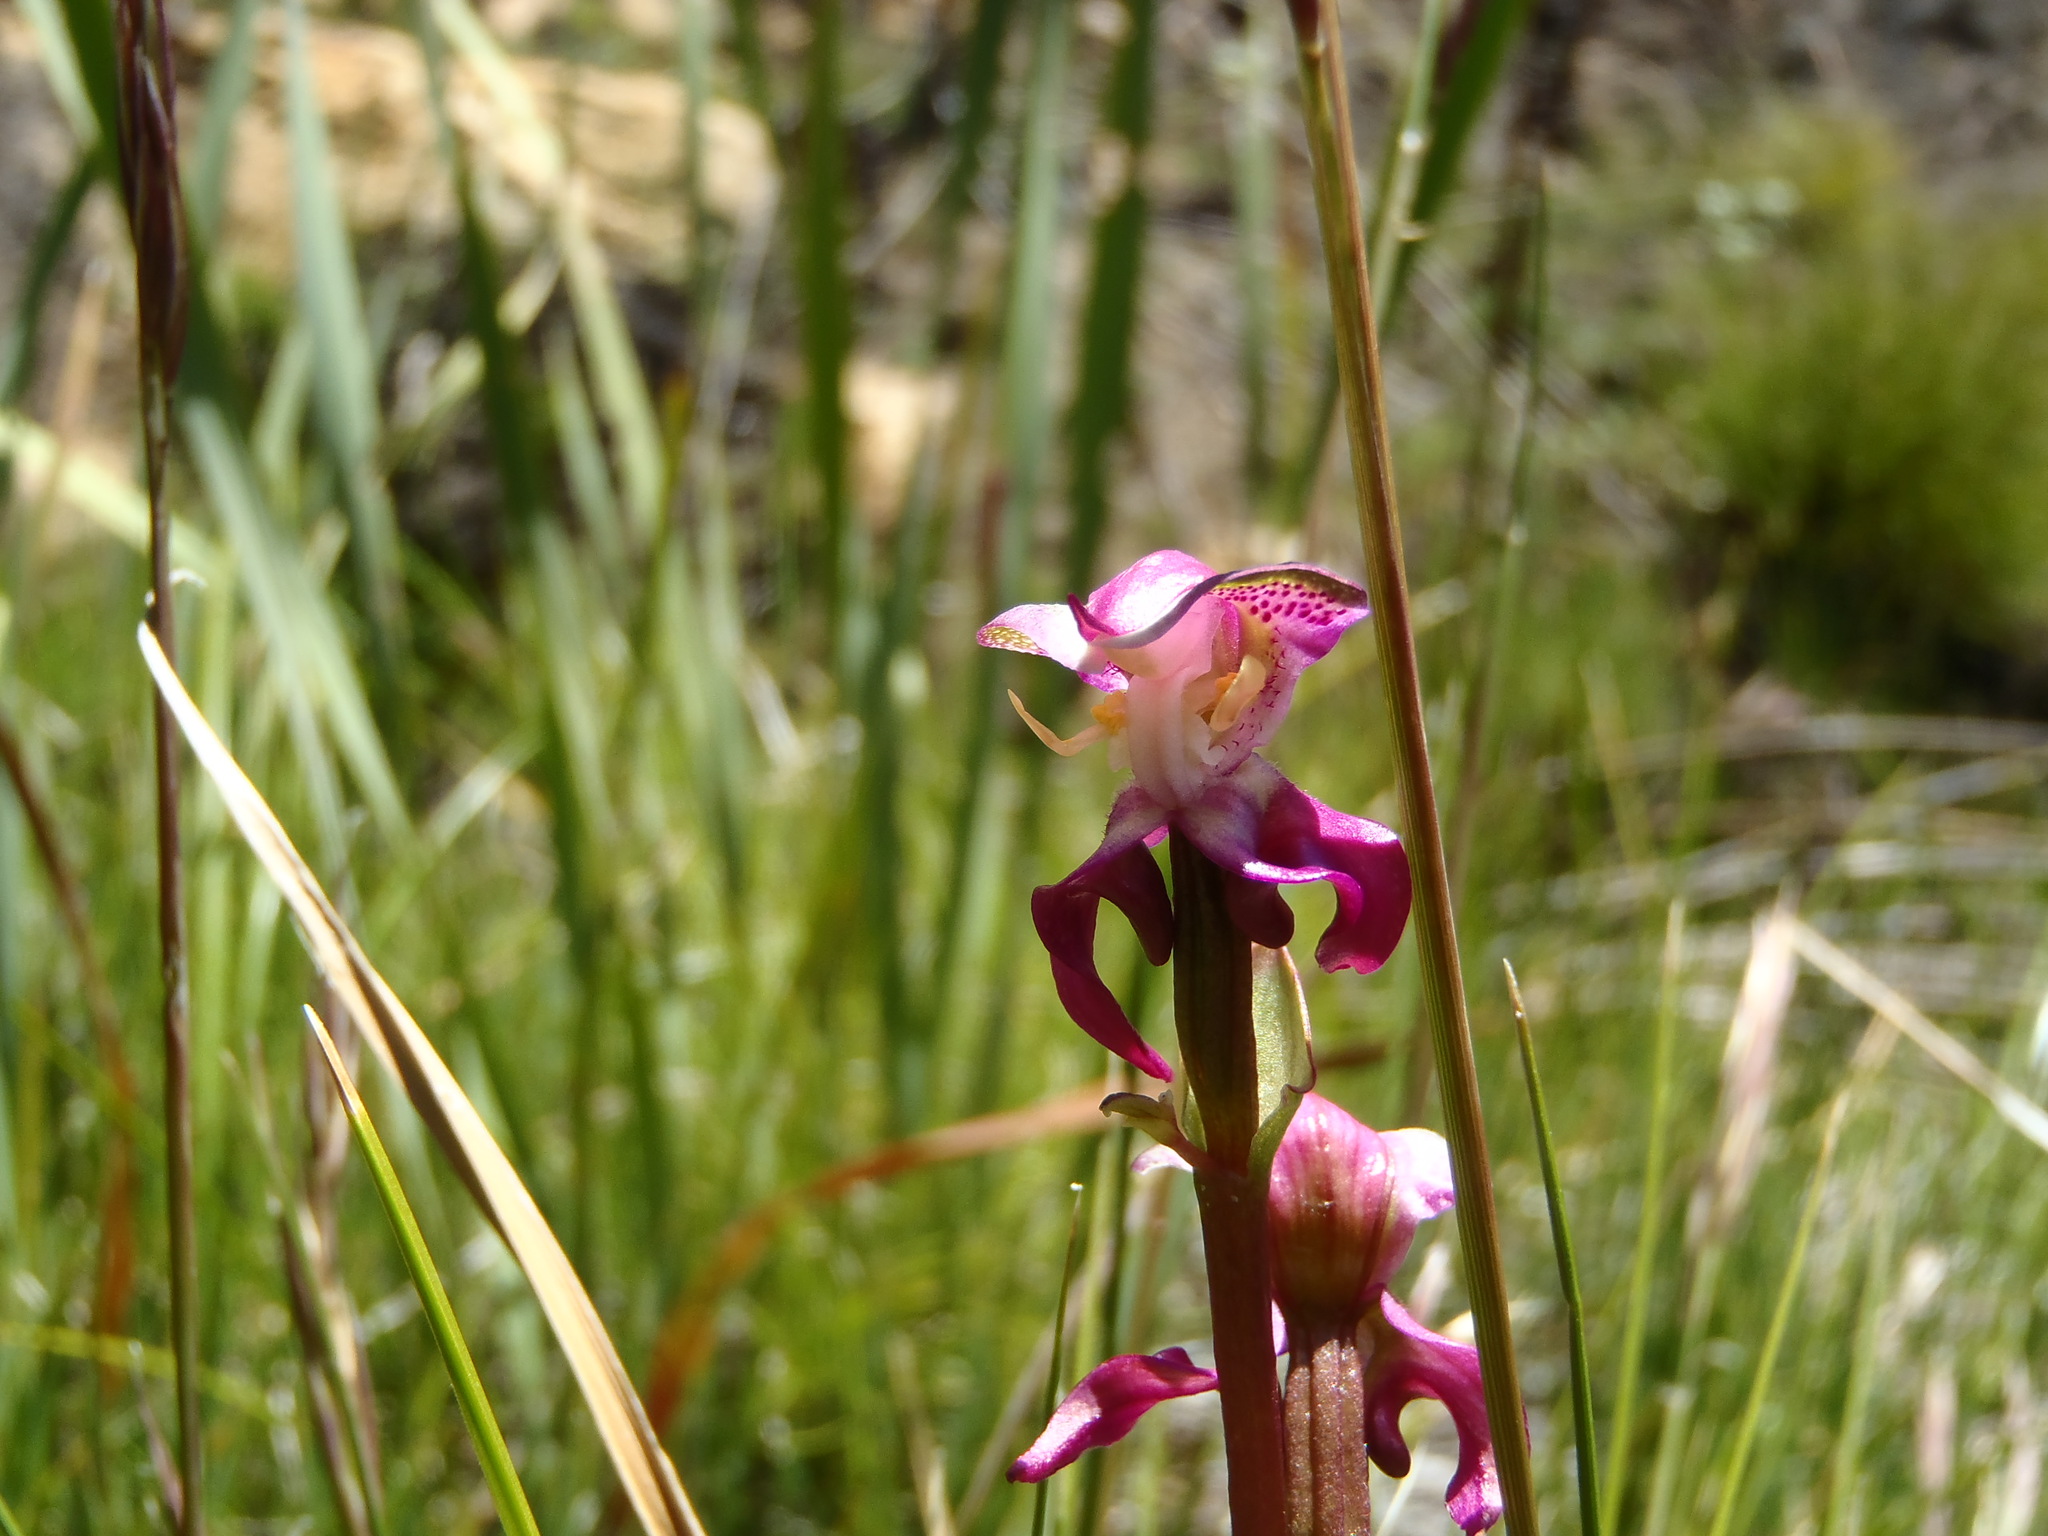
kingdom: Plantae
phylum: Tracheophyta
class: Liliopsida
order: Asparagales
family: Orchidaceae
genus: Disperis
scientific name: Disperis paludosa
